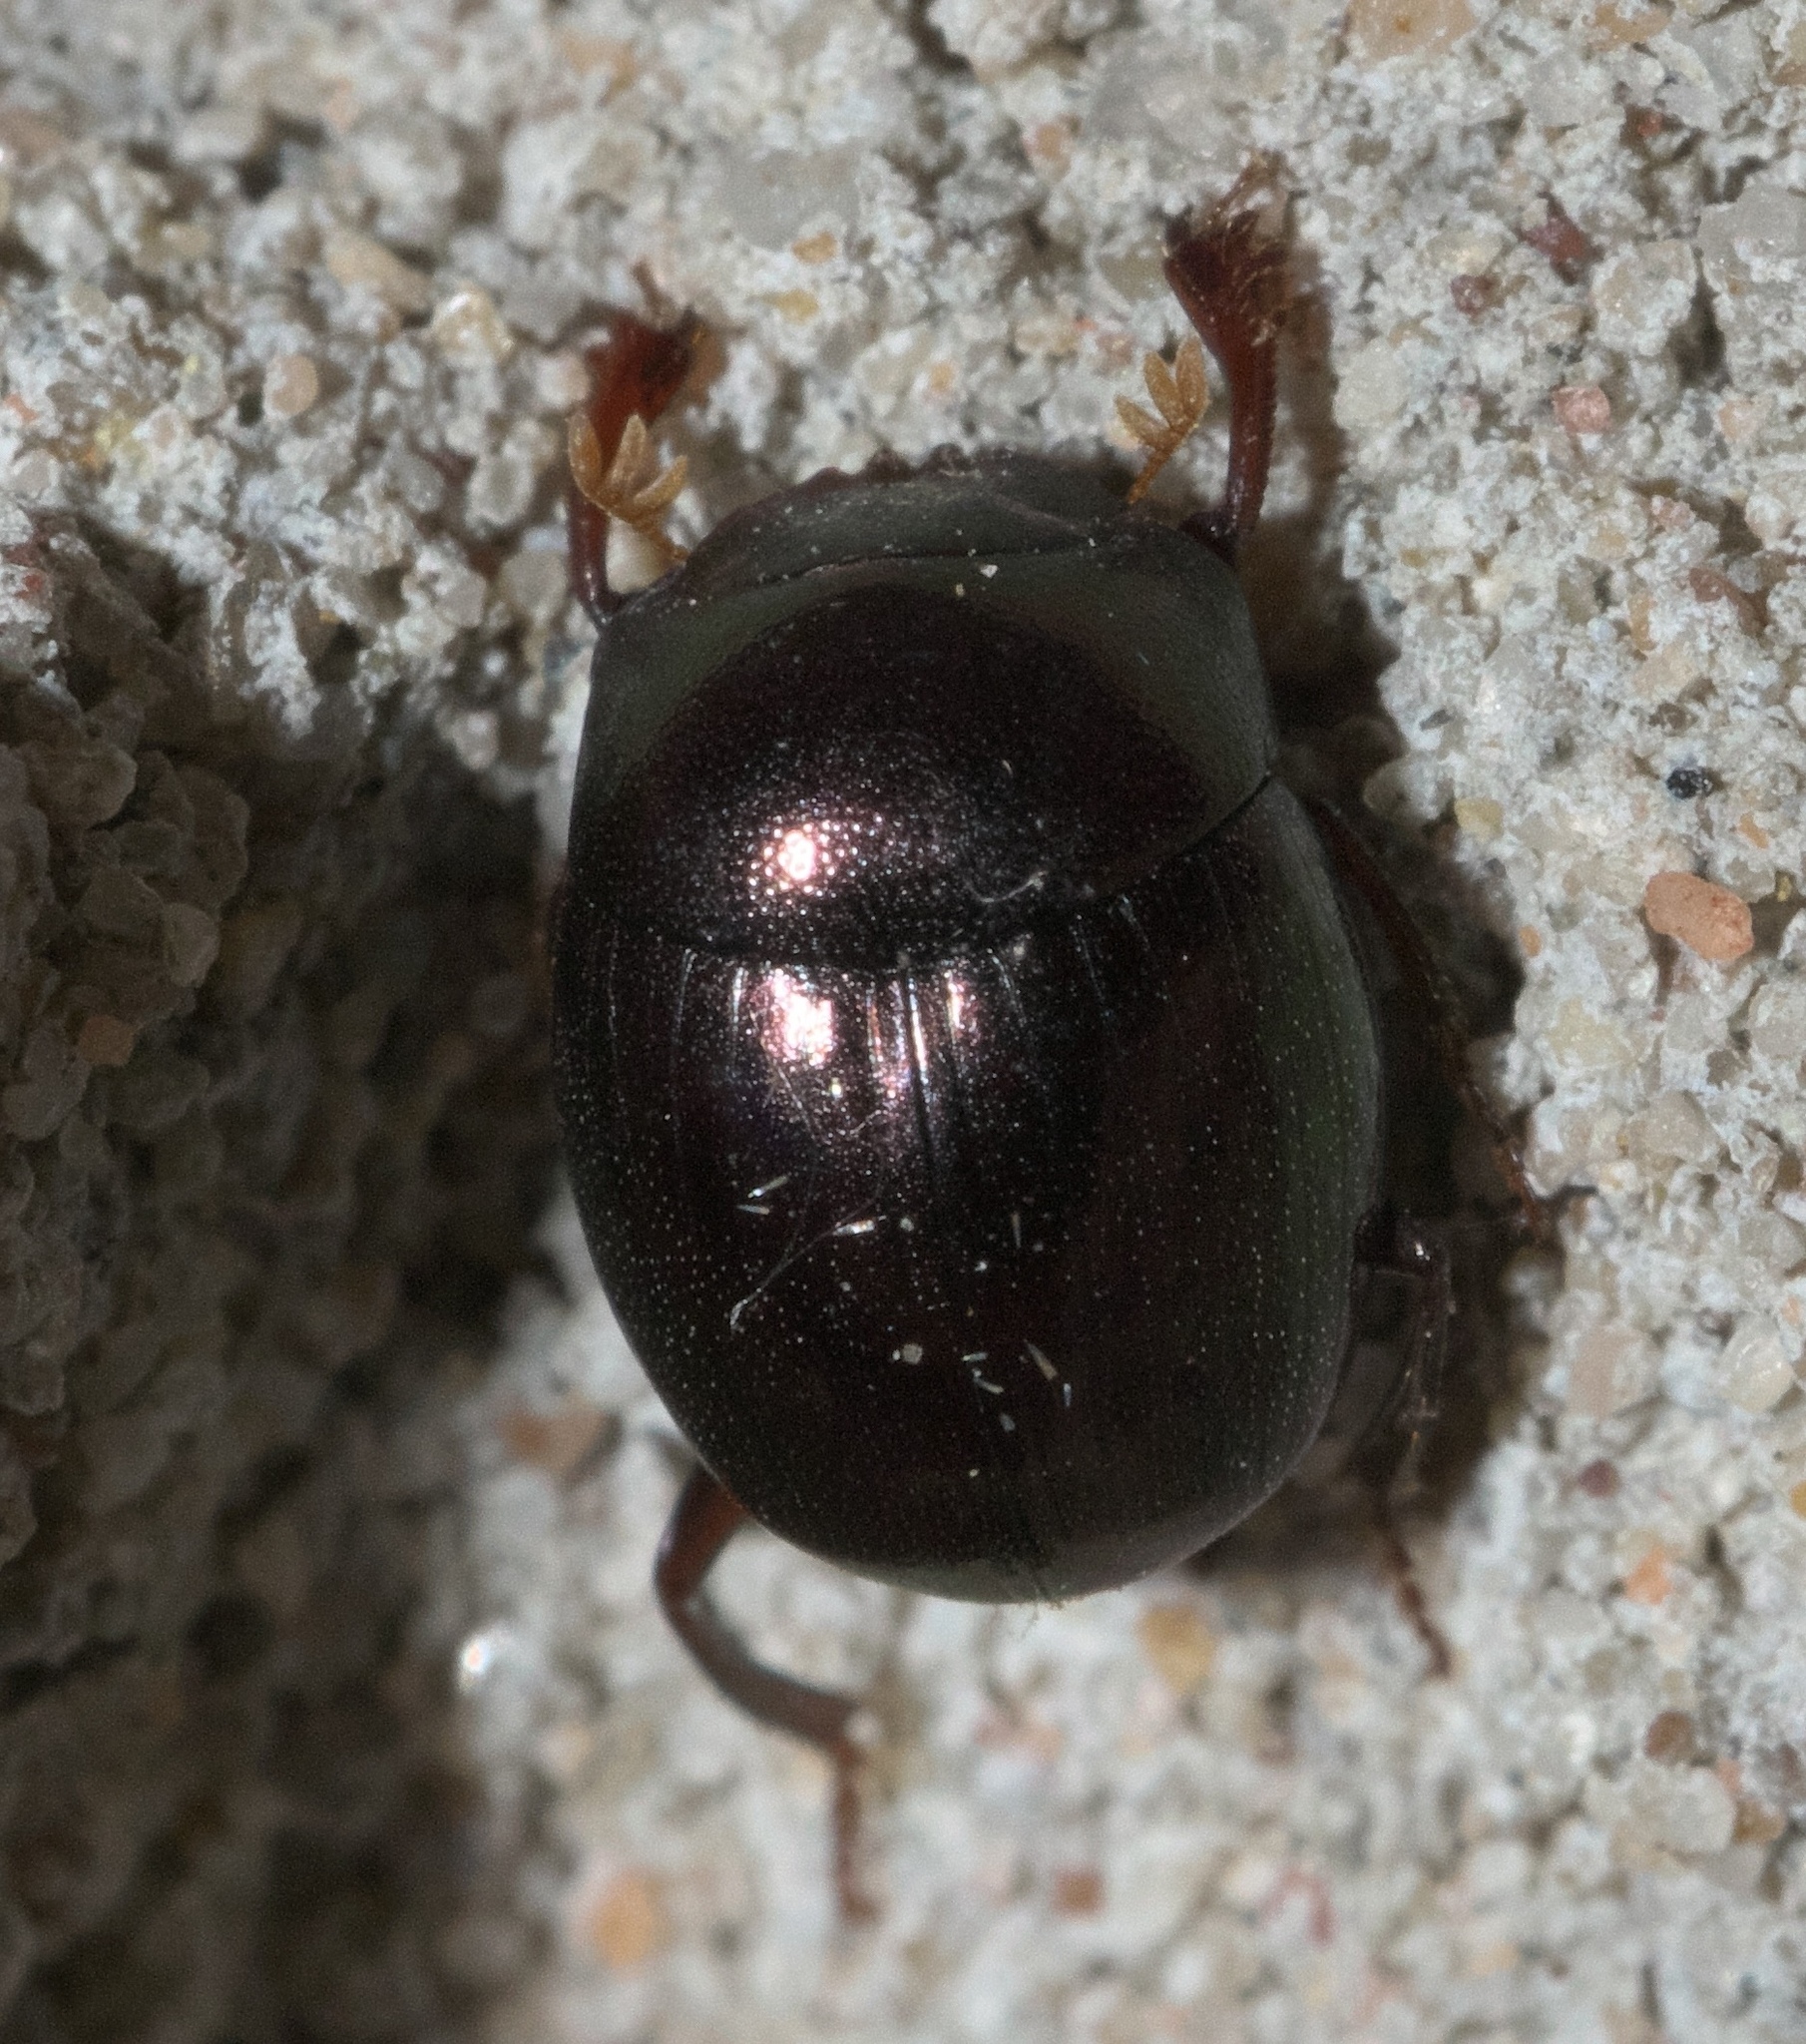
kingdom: Animalia
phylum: Arthropoda
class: Insecta
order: Coleoptera
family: Scarabaeidae
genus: Pseudocanthon
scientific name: Pseudocanthon perplexus
